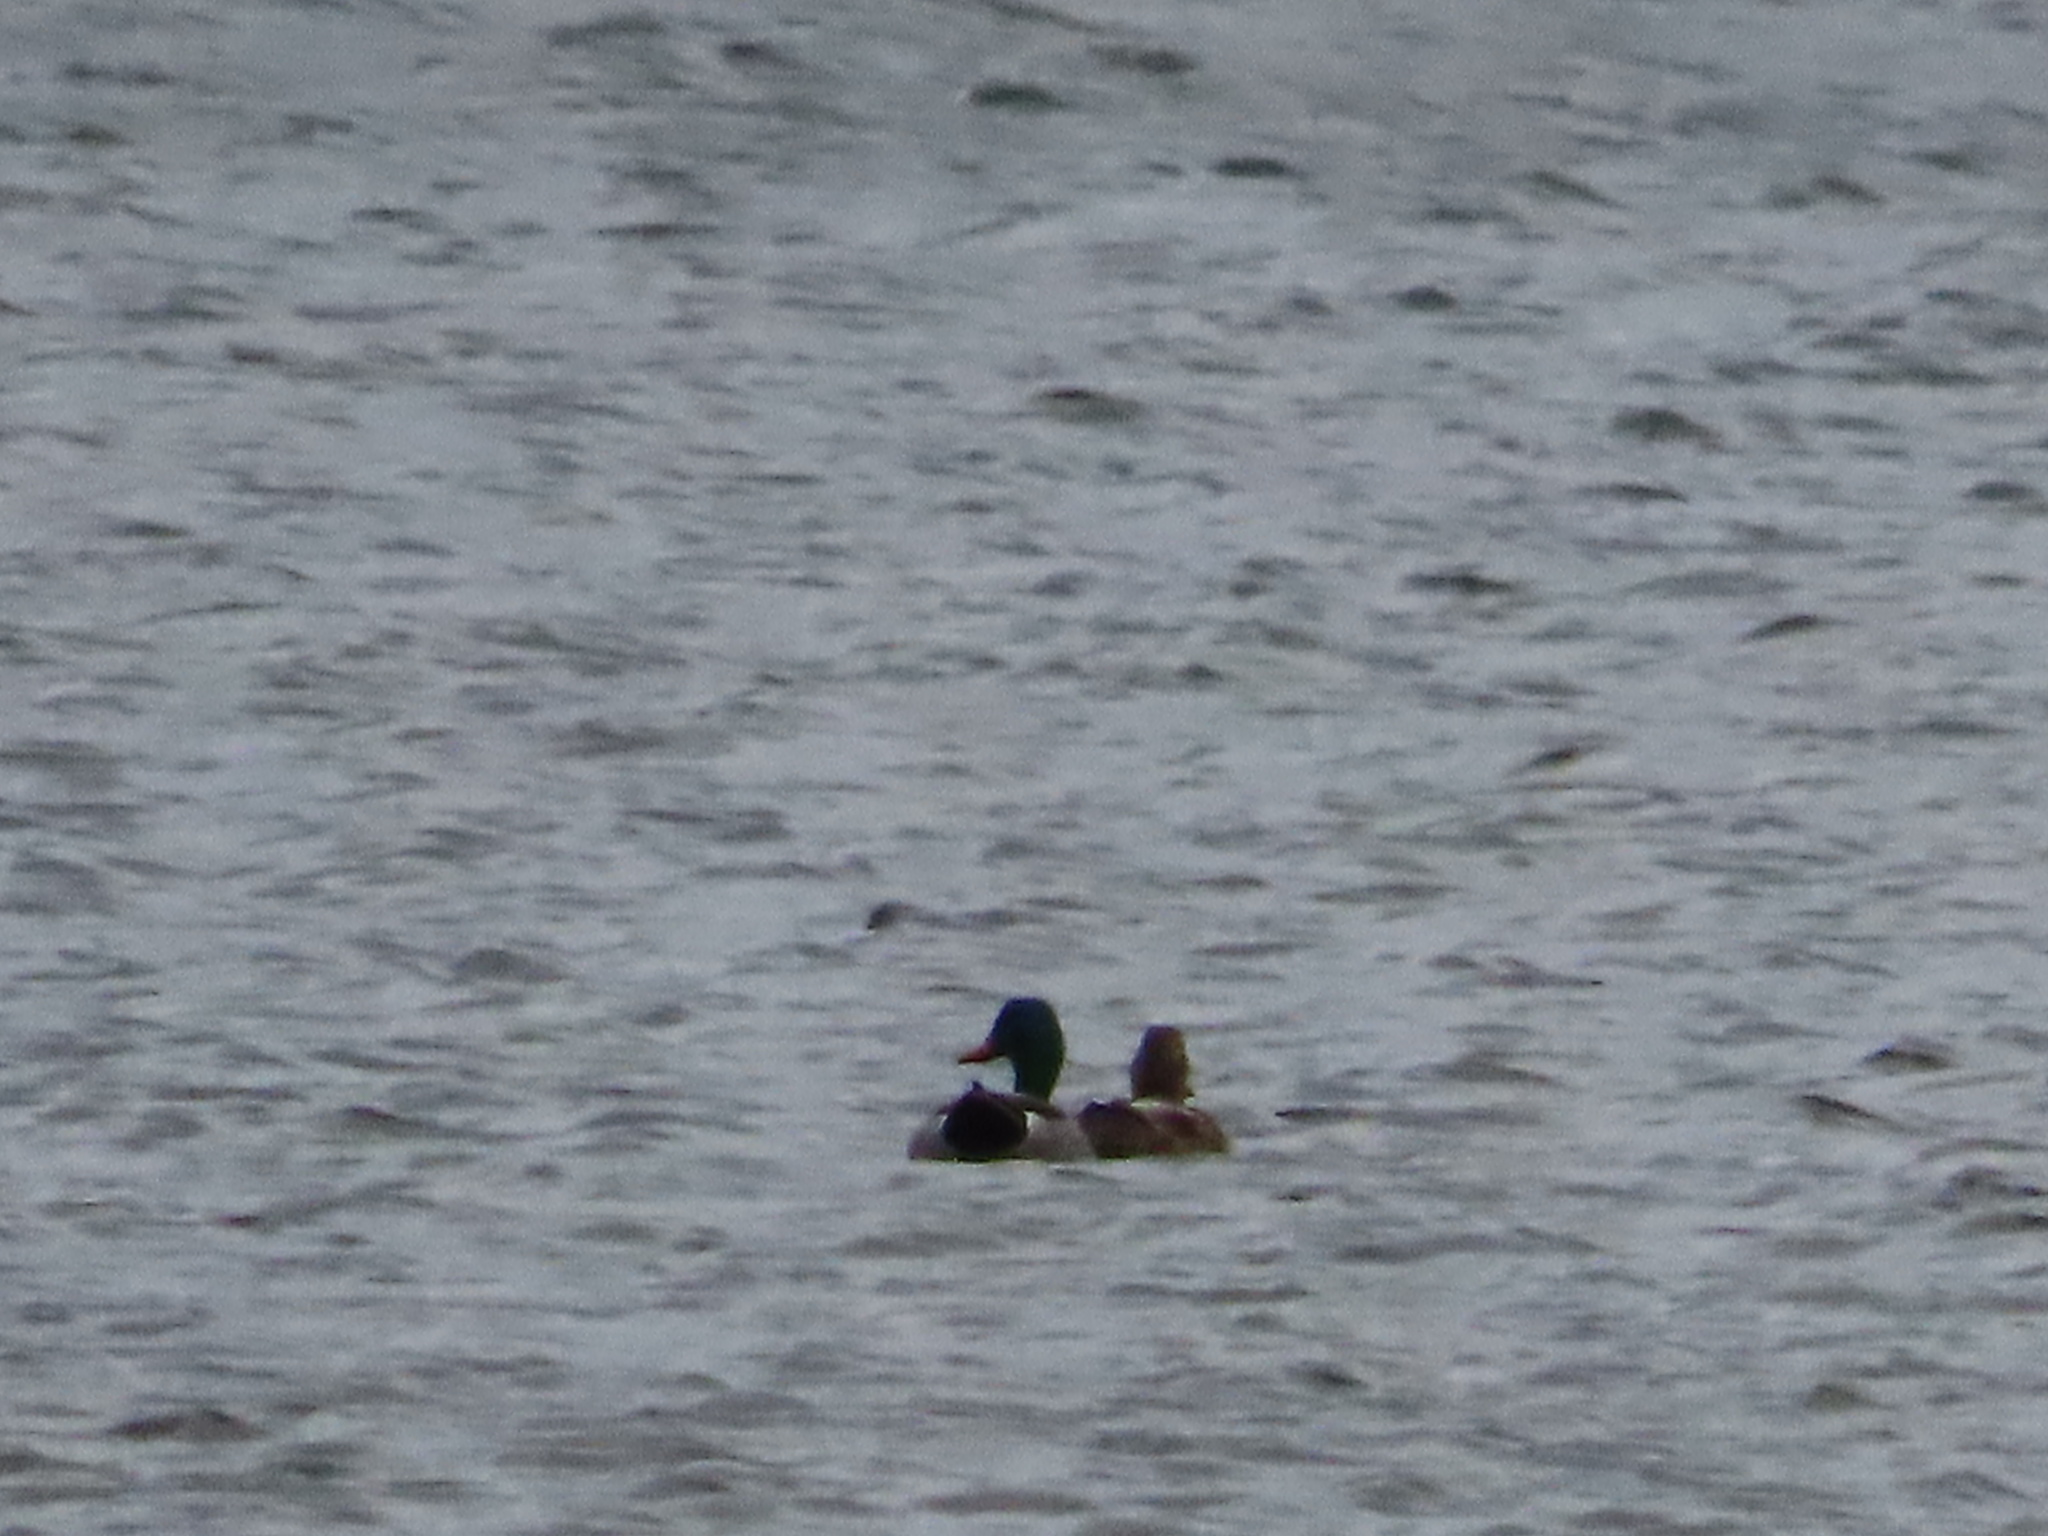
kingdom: Animalia
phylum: Chordata
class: Aves
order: Anseriformes
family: Anatidae
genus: Anas
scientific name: Anas platyrhynchos
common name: Mallard
